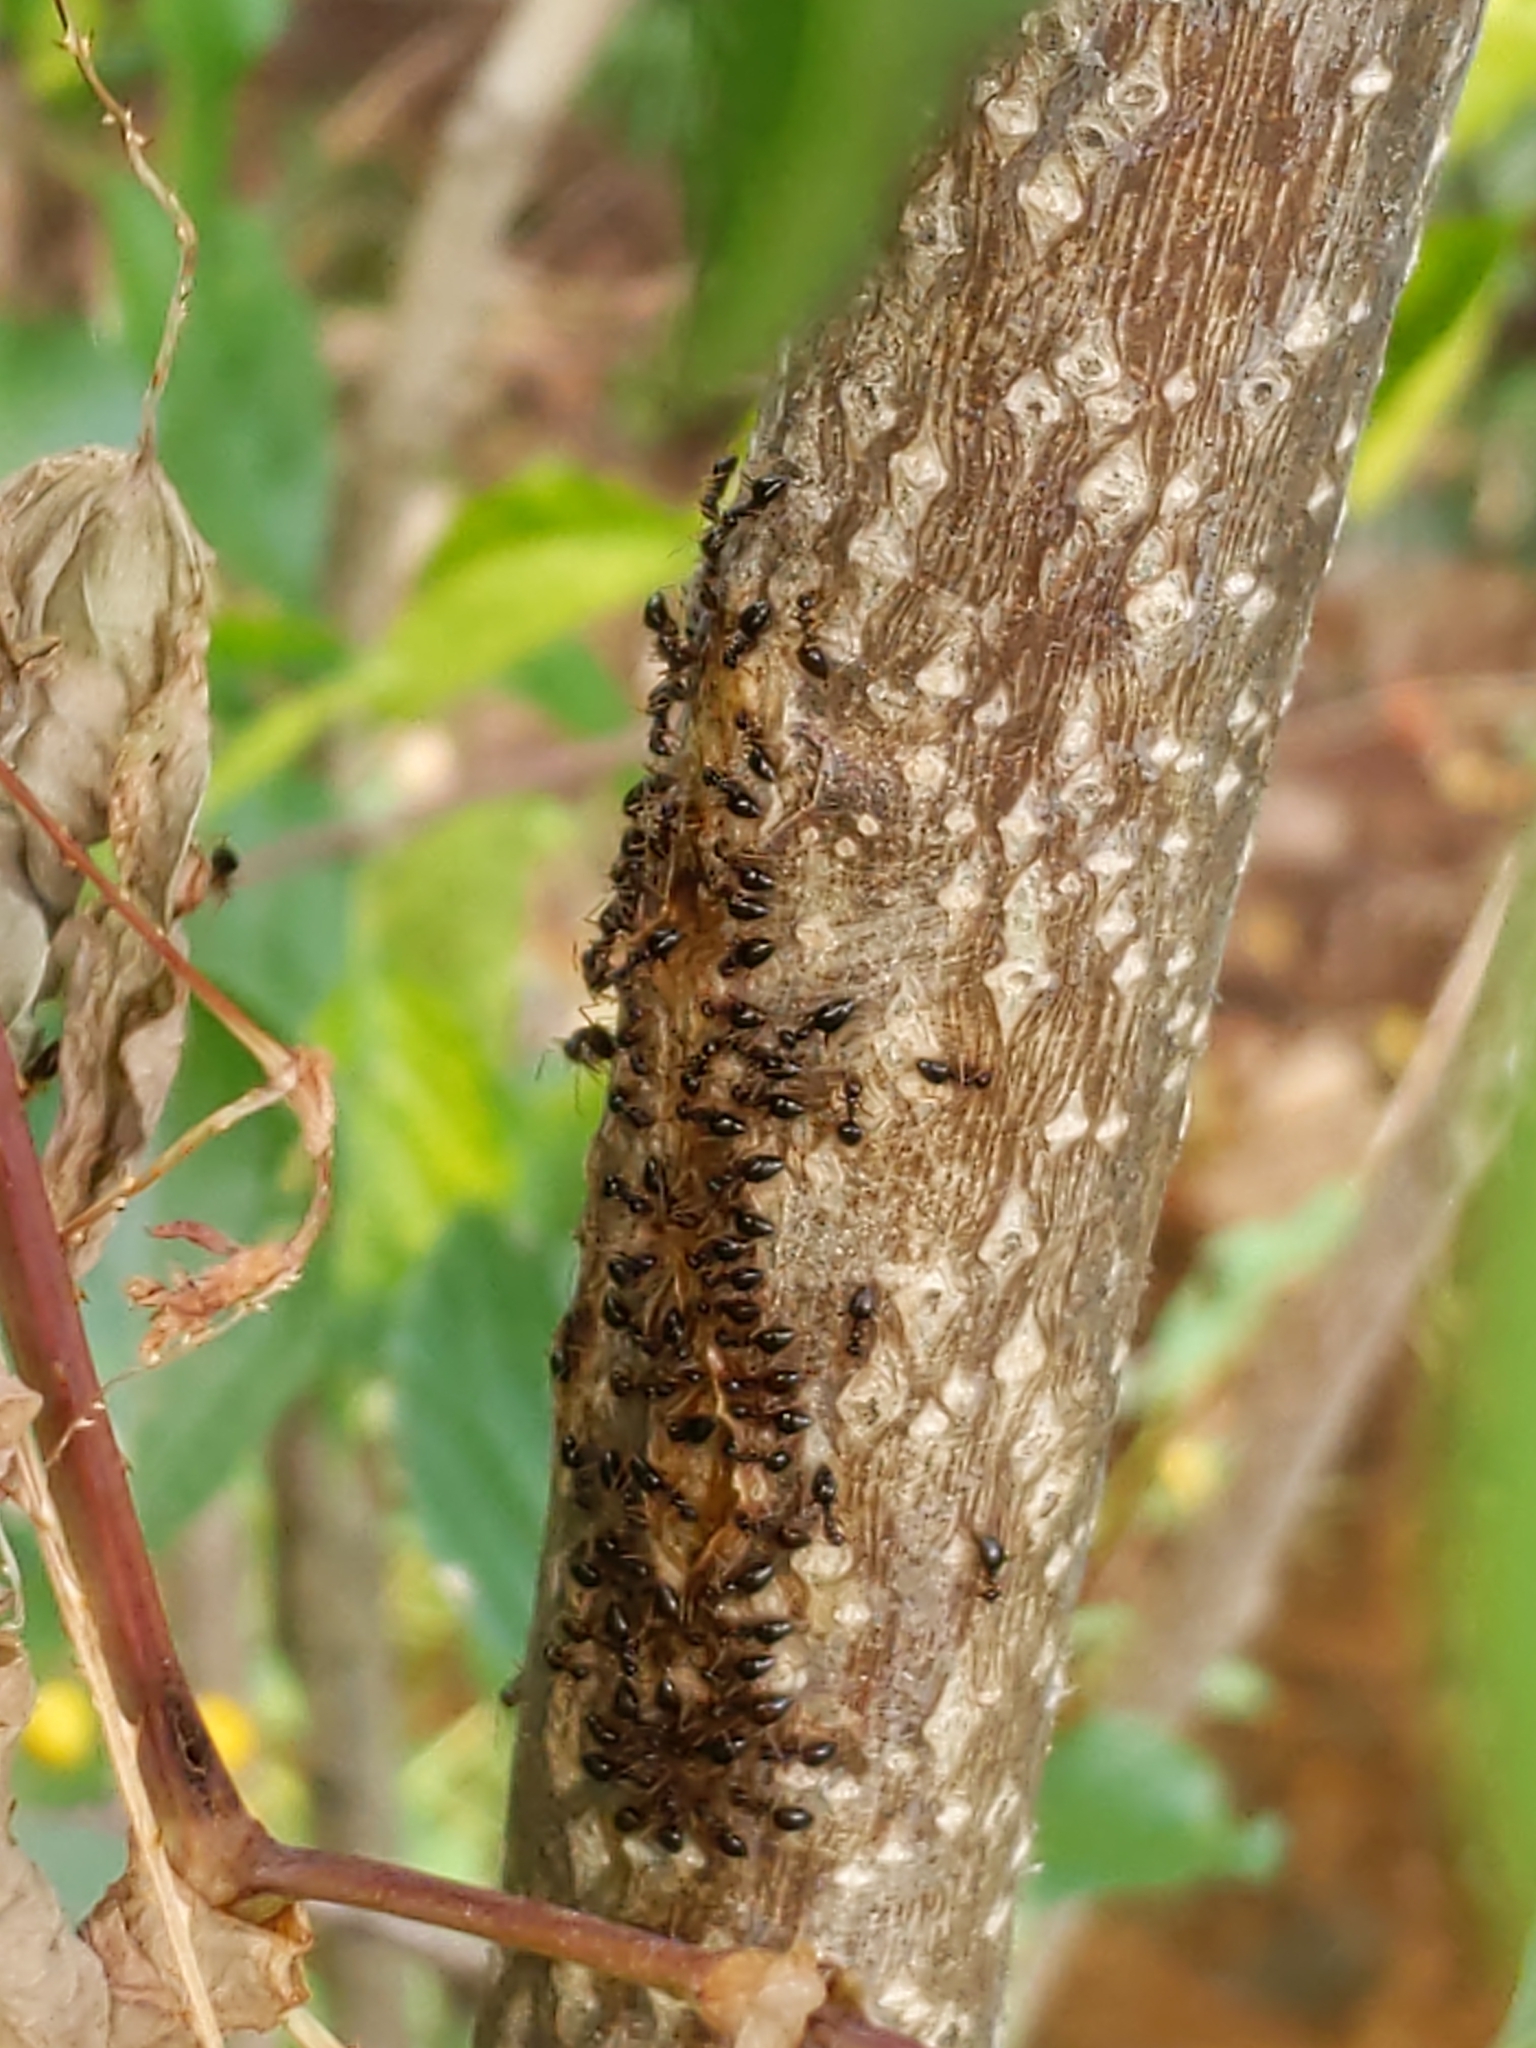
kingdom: Animalia
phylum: Arthropoda
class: Insecta
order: Hymenoptera
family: Formicidae
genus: Prenolepis
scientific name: Prenolepis imparis
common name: Small honey ant
